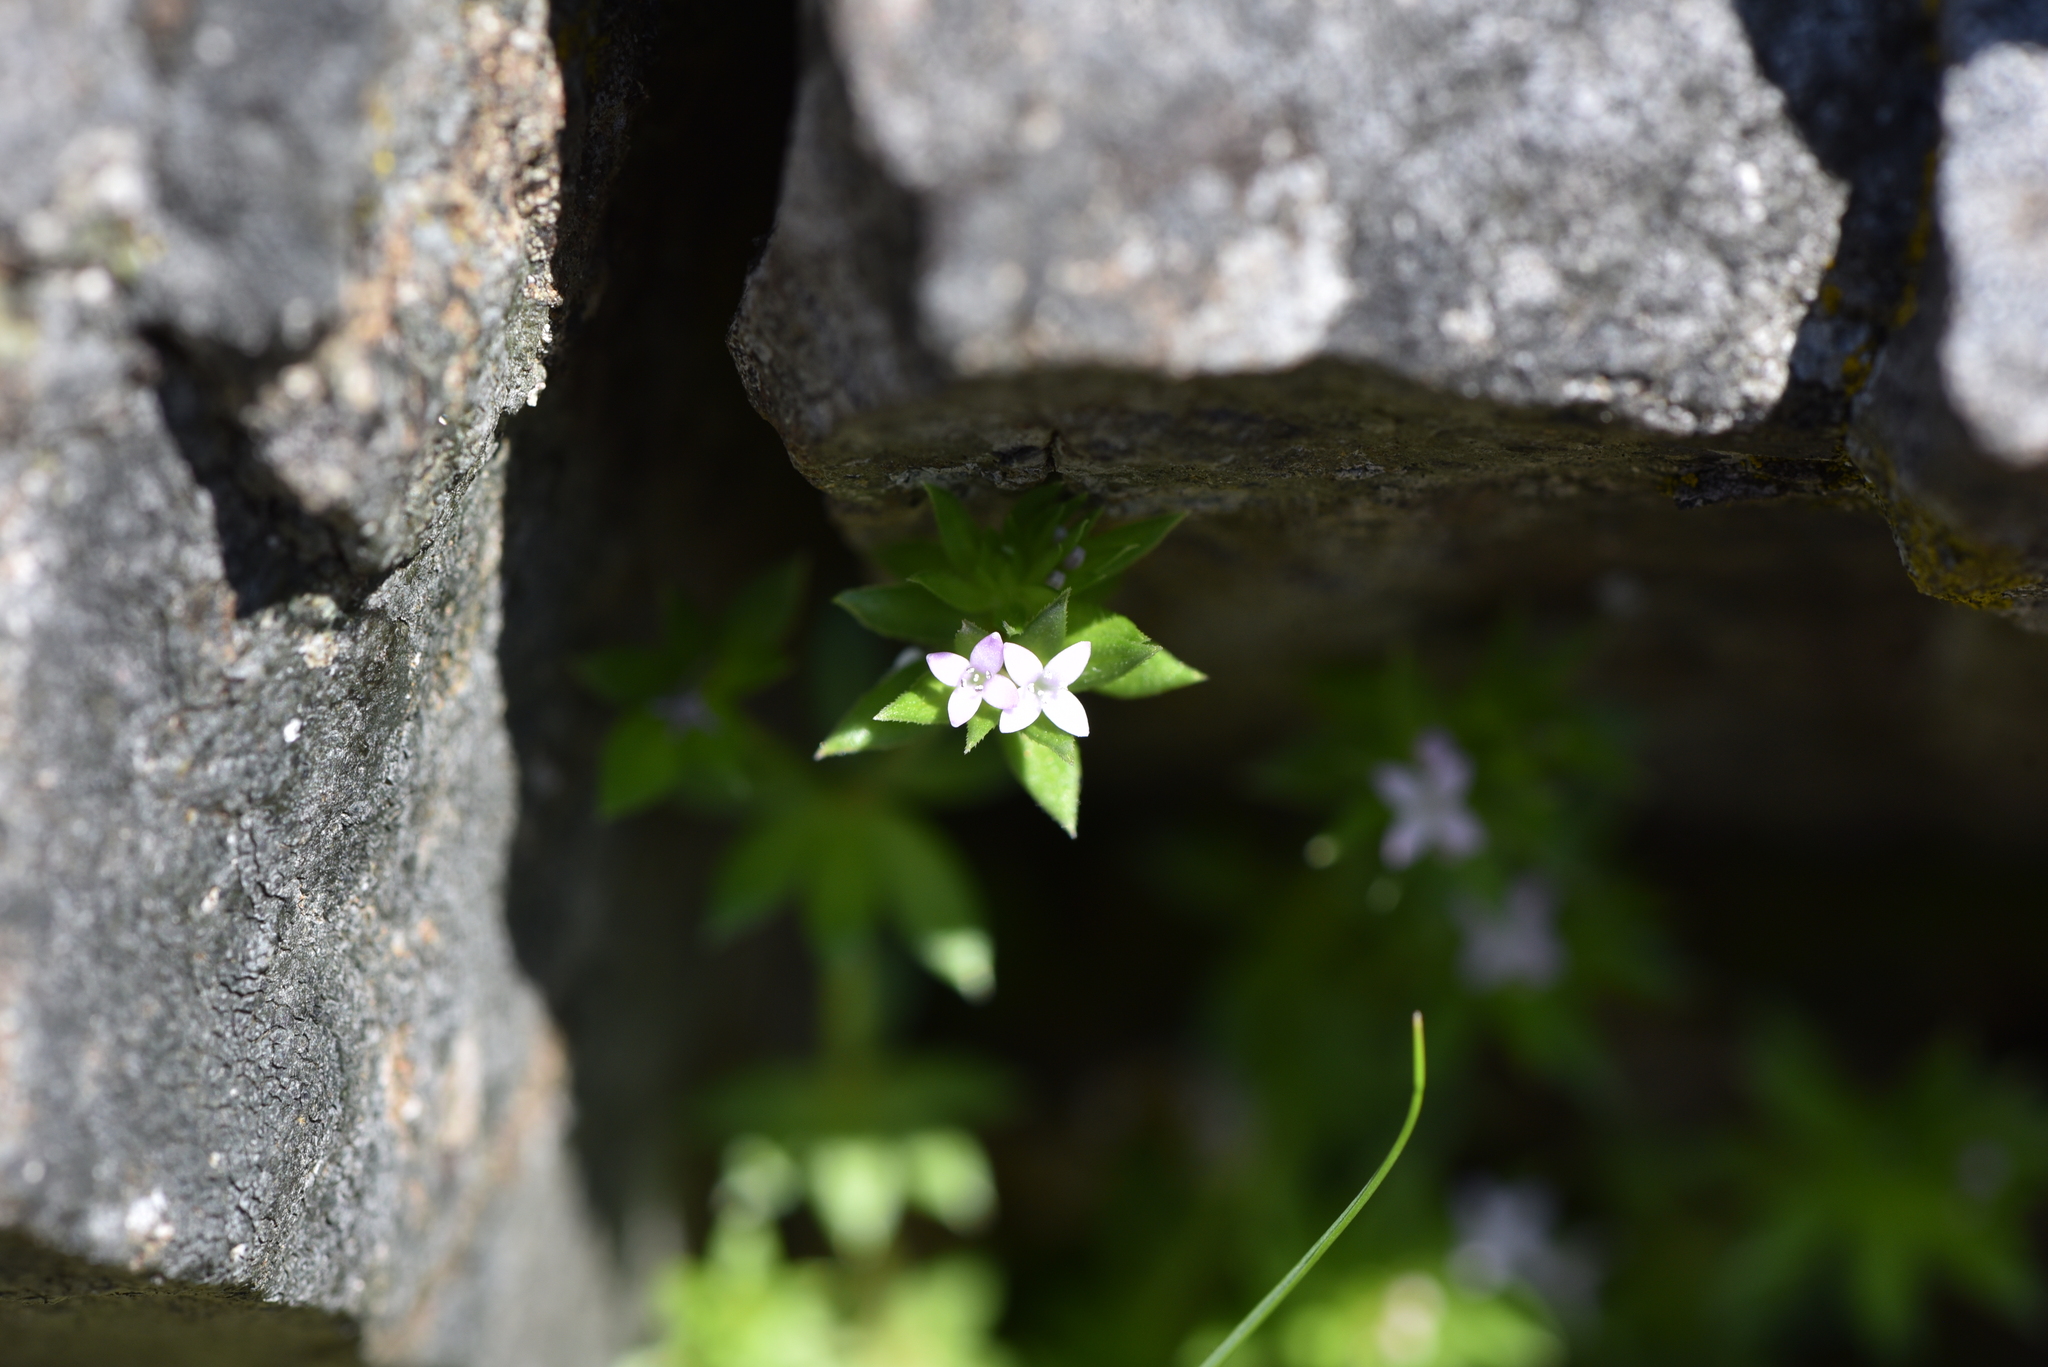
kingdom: Plantae
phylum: Tracheophyta
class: Magnoliopsida
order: Gentianales
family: Rubiaceae
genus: Sherardia
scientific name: Sherardia arvensis
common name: Field madder
